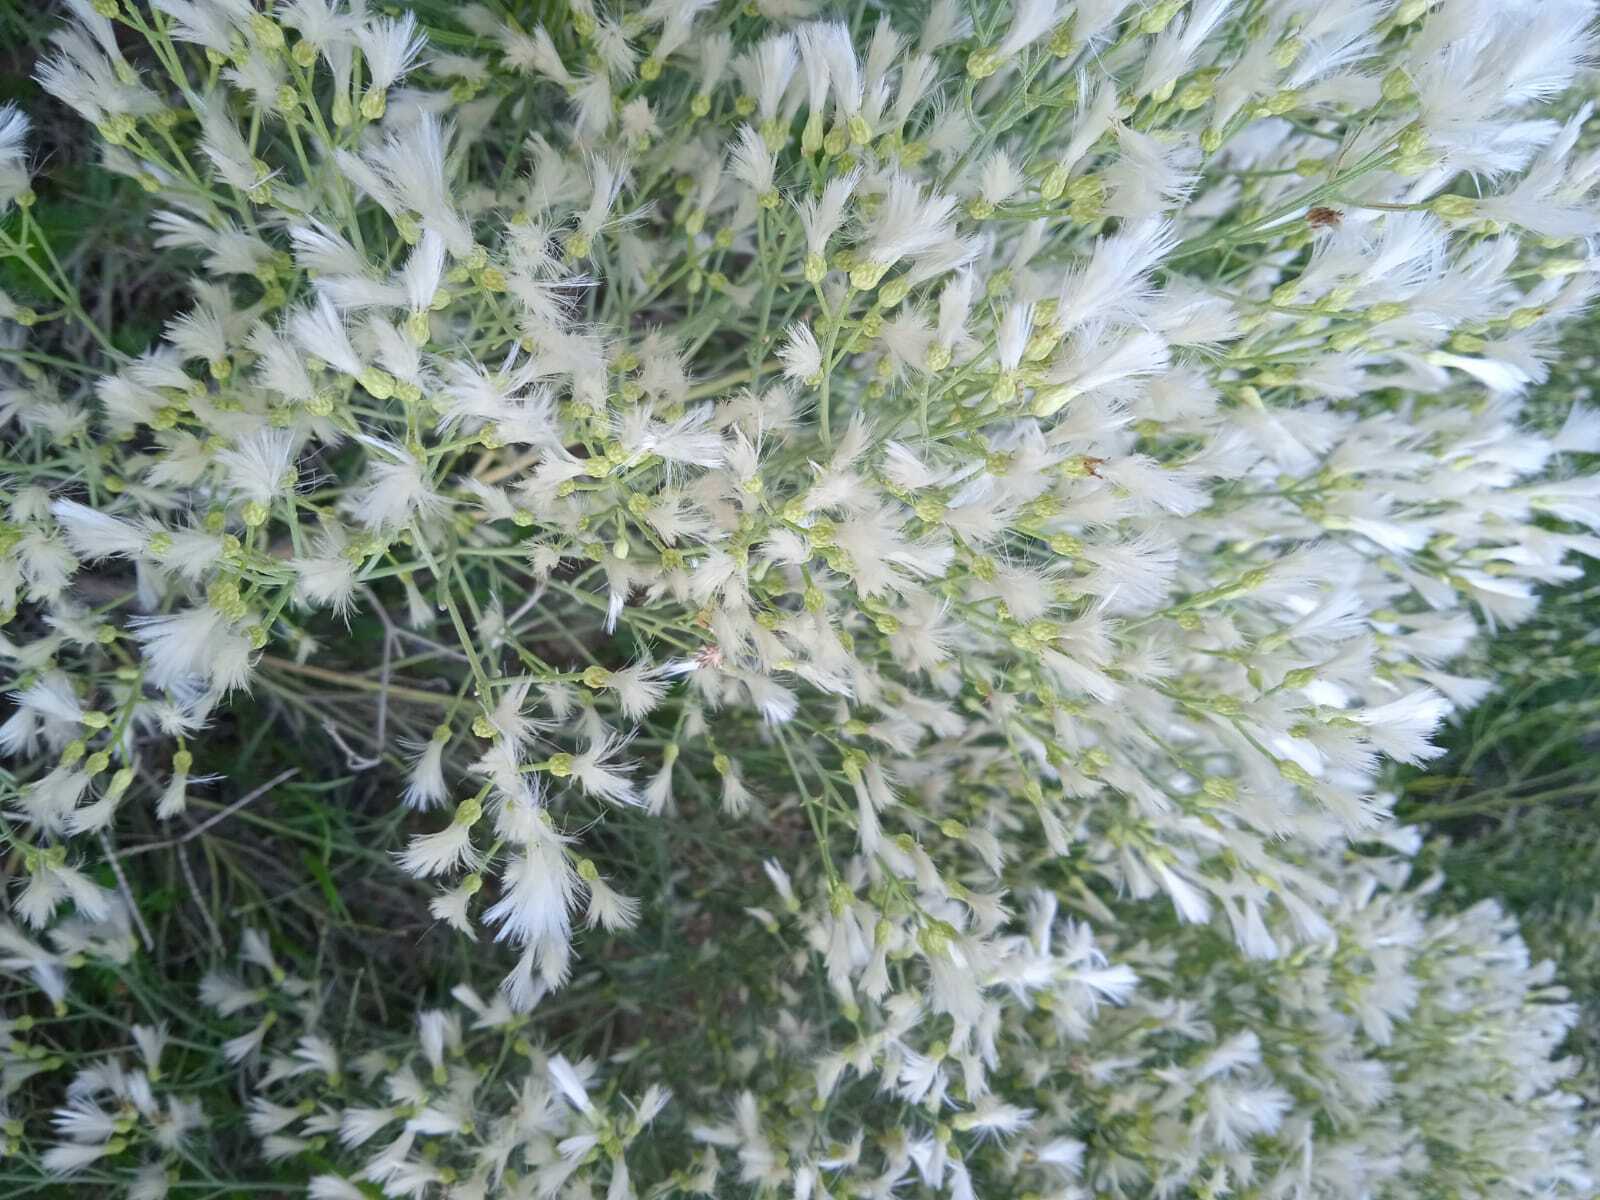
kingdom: Plantae
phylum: Tracheophyta
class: Magnoliopsida
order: Asterales
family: Asteraceae
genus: Baccharis
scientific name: Baccharis notosergila
